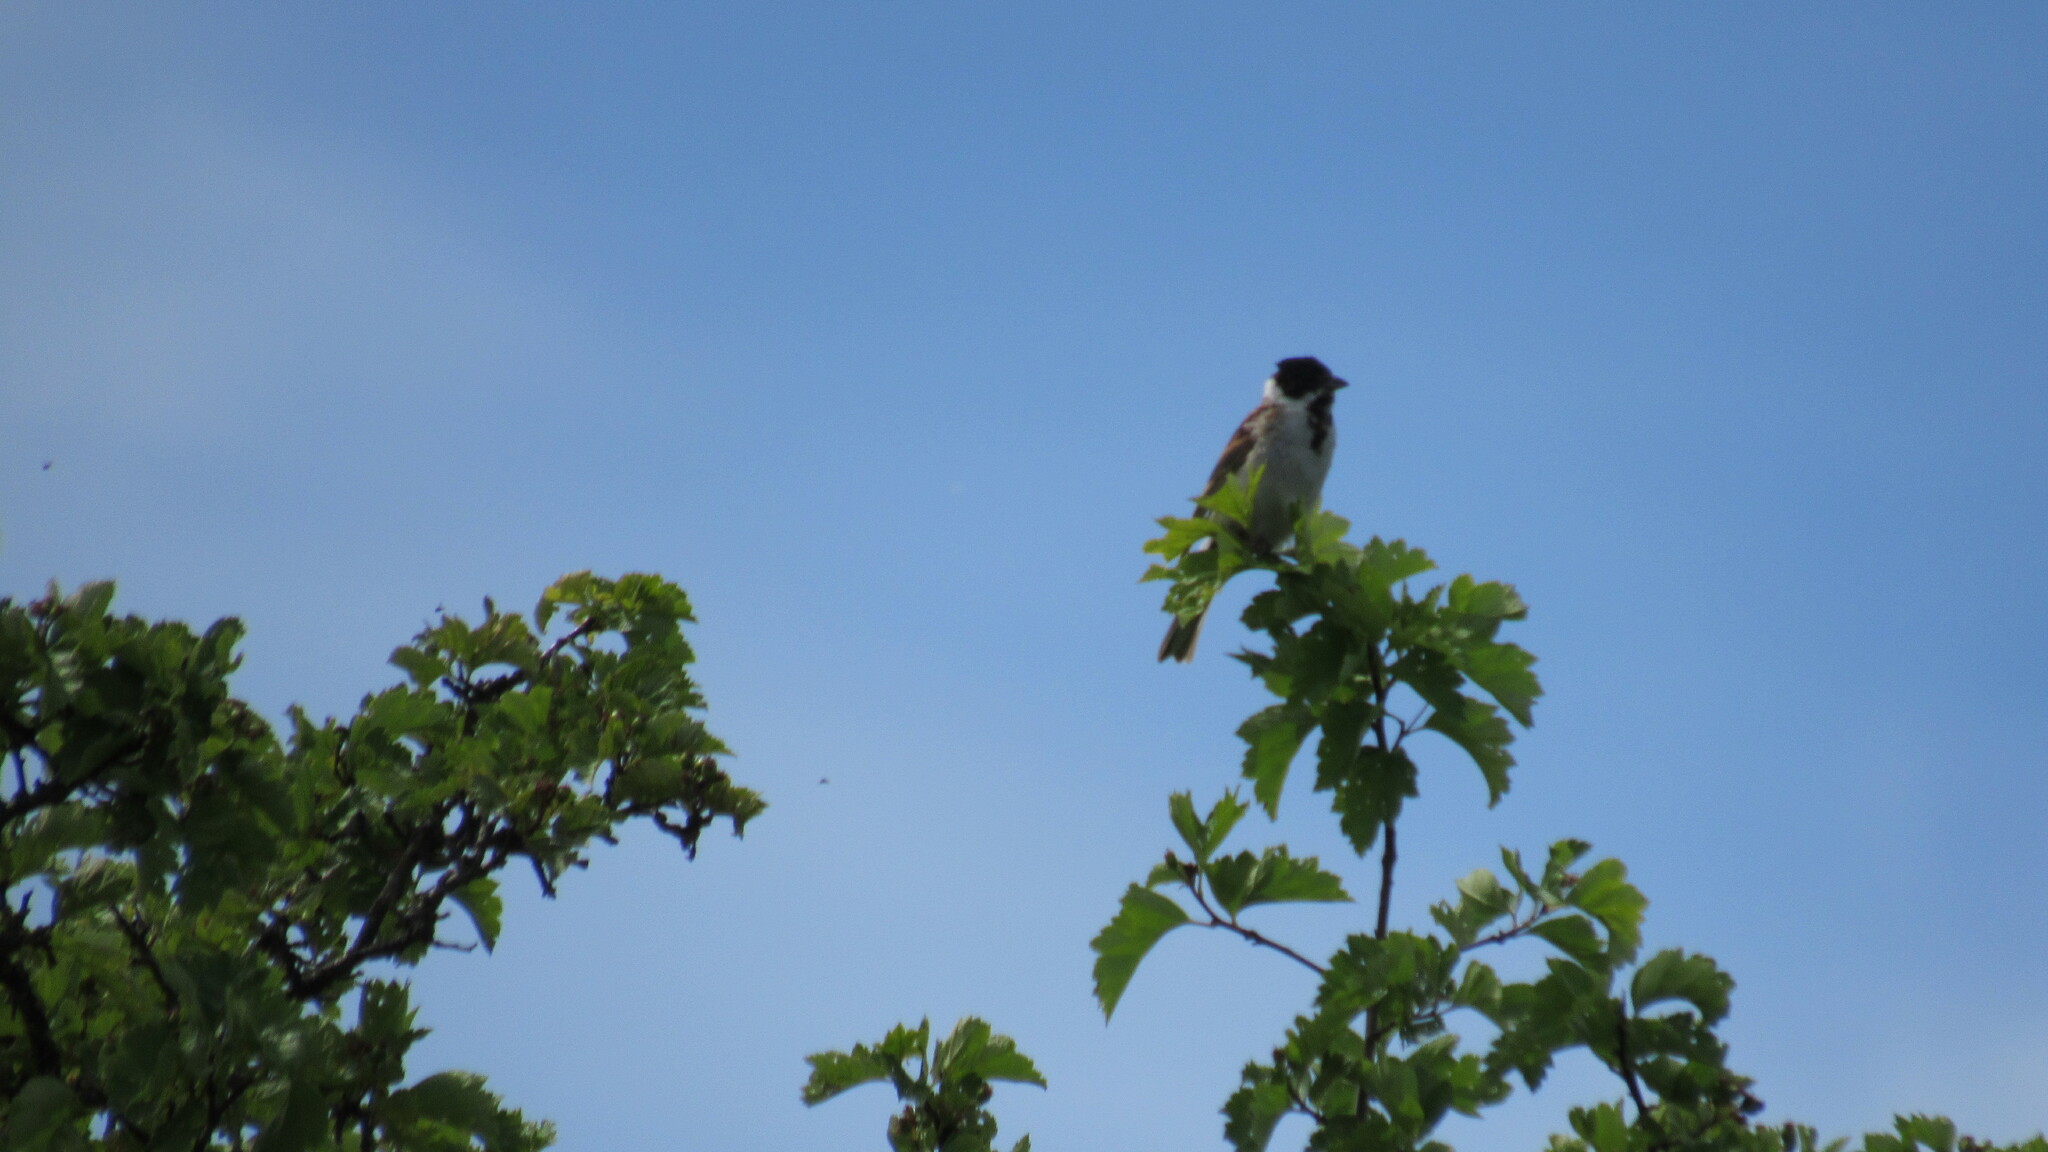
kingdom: Animalia
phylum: Chordata
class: Aves
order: Passeriformes
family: Emberizidae
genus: Emberiza
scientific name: Emberiza schoeniclus
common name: Reed bunting
